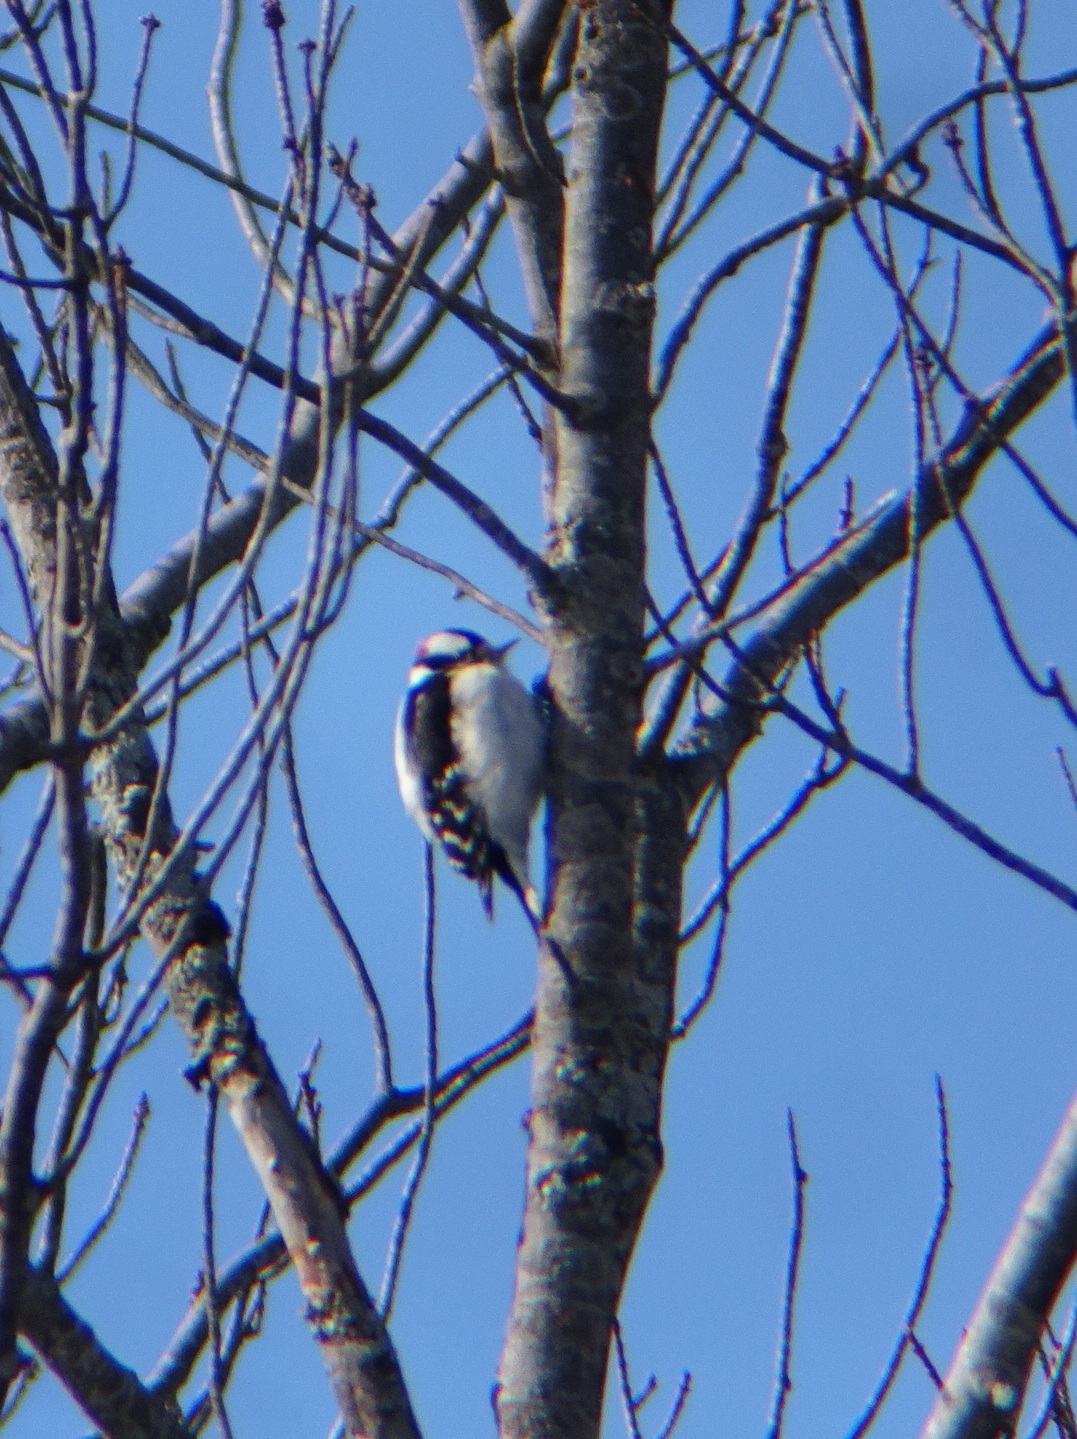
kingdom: Animalia
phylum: Chordata
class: Aves
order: Piciformes
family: Picidae
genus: Dryobates
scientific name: Dryobates pubescens
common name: Downy woodpecker
